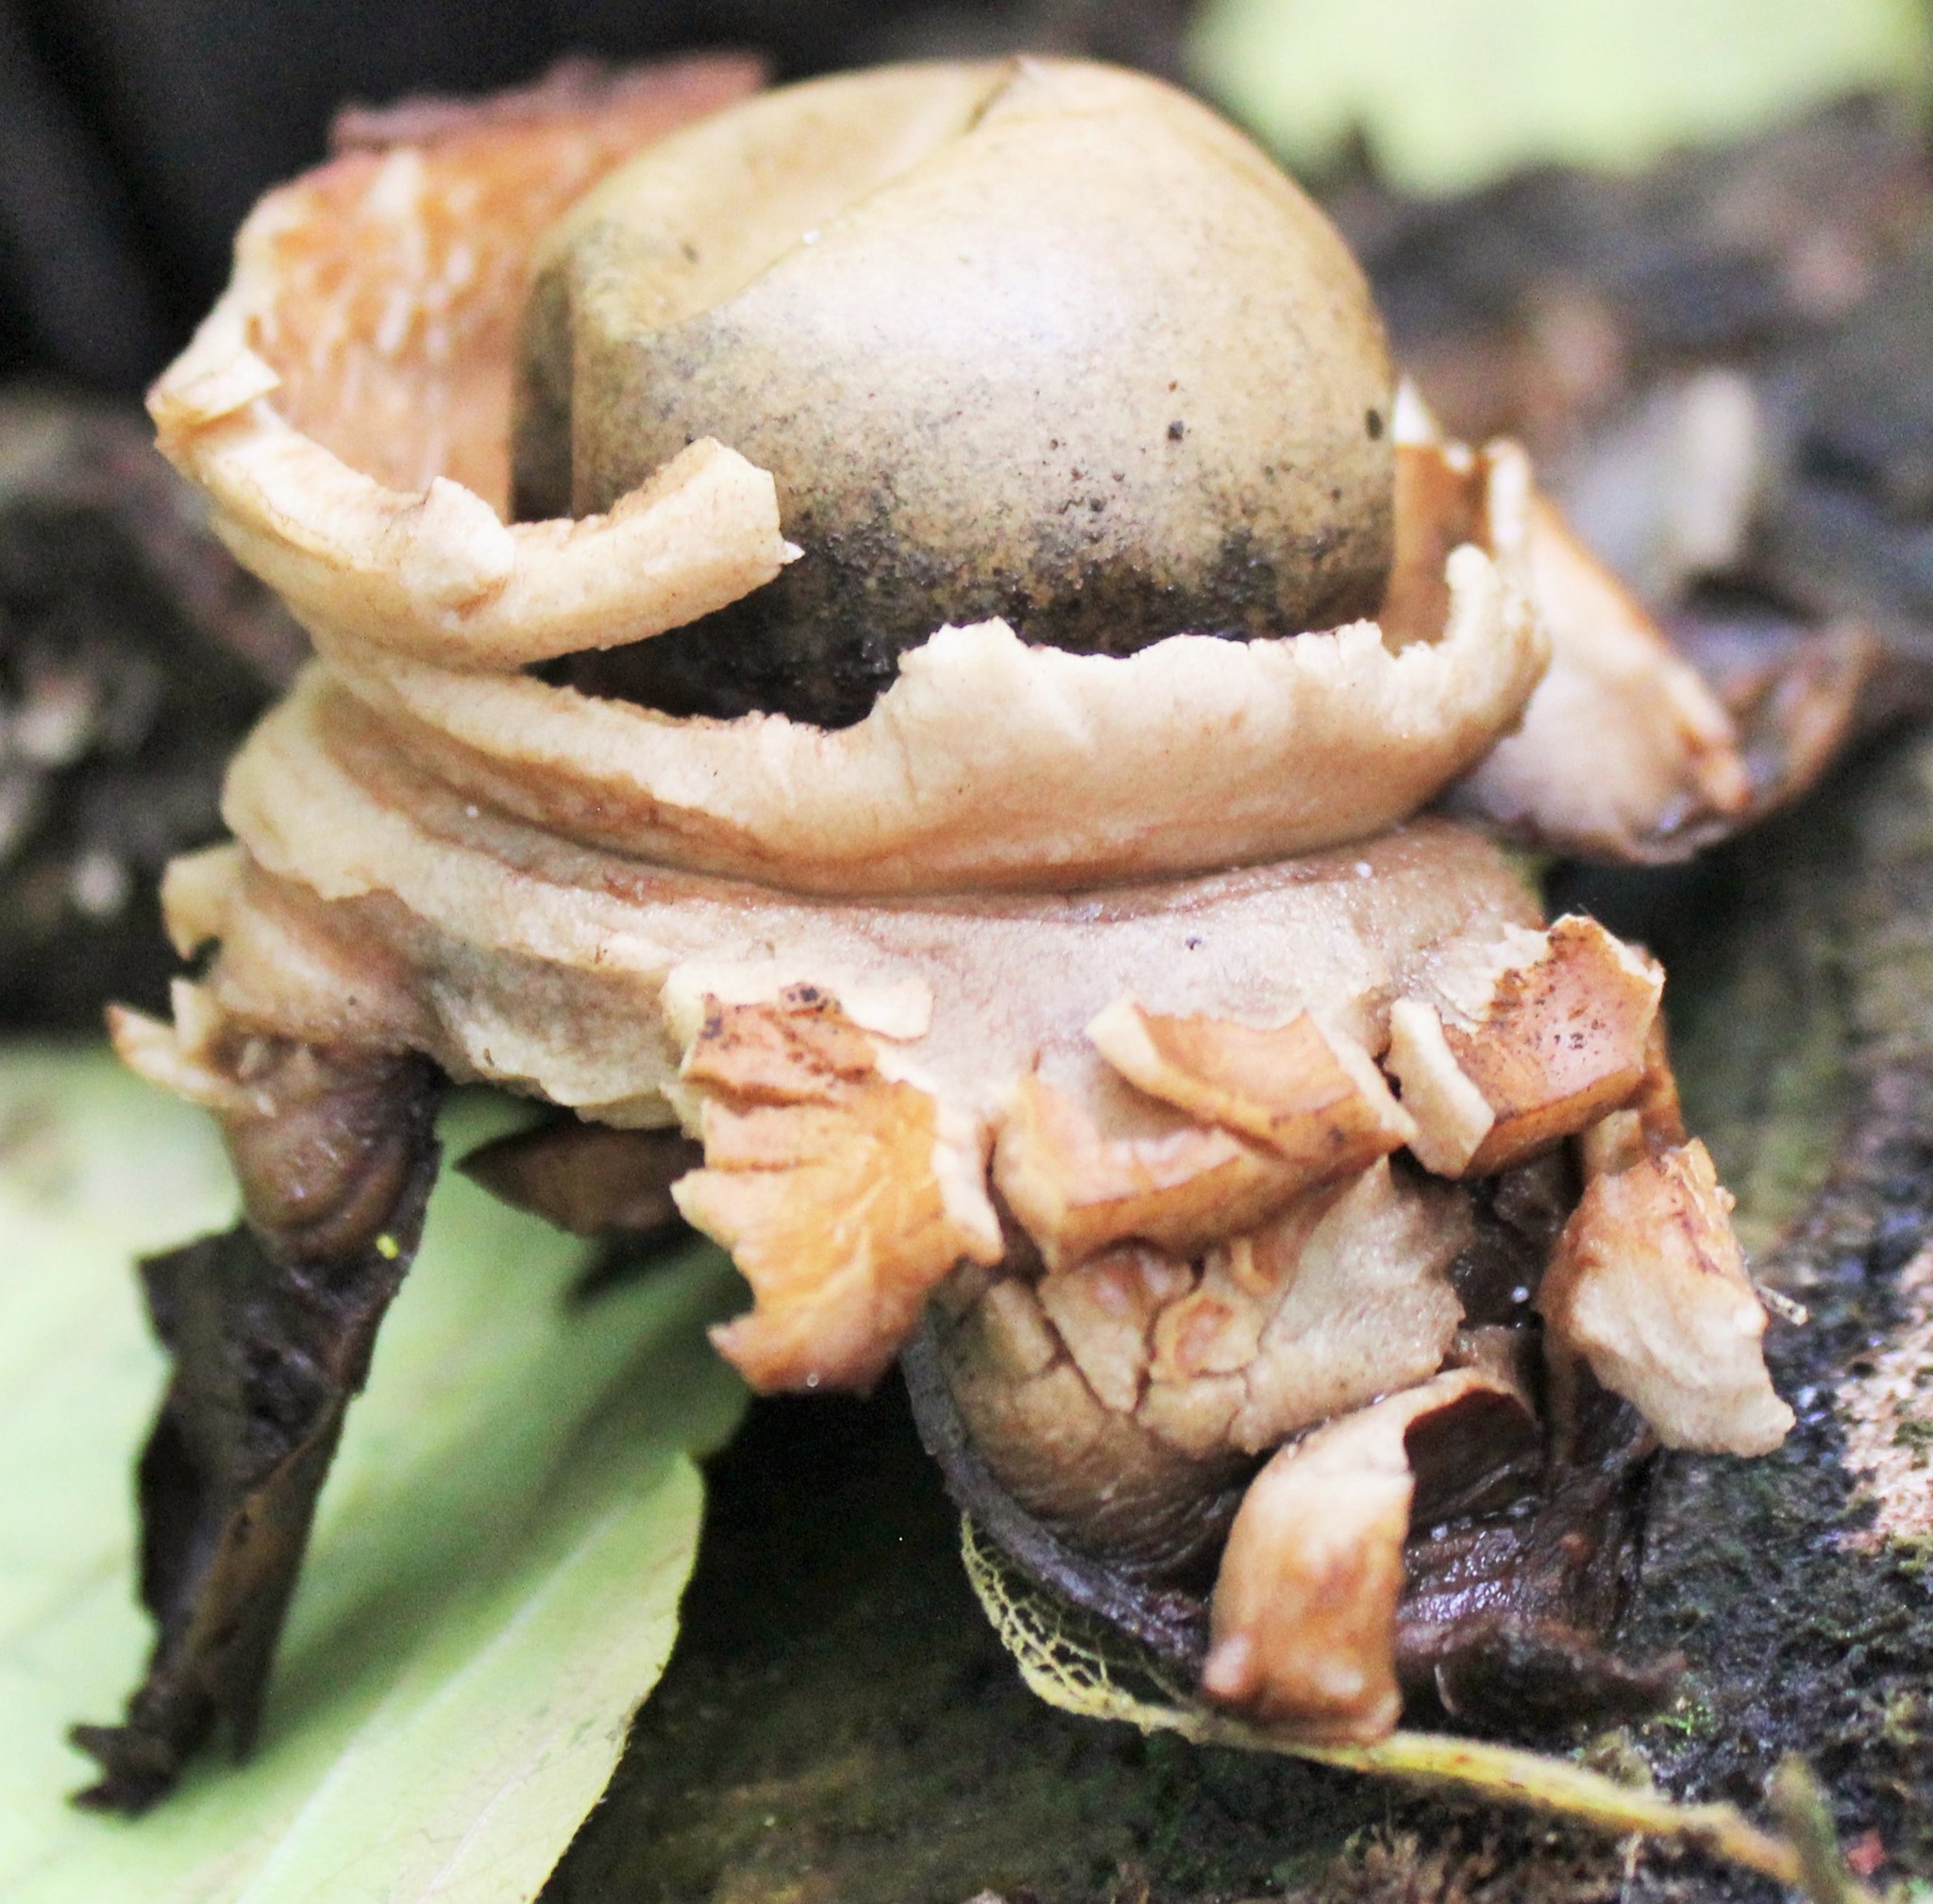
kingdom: Fungi
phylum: Basidiomycota
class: Agaricomycetes
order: Geastrales
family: Geastraceae
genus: Geastrum
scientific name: Geastrum
